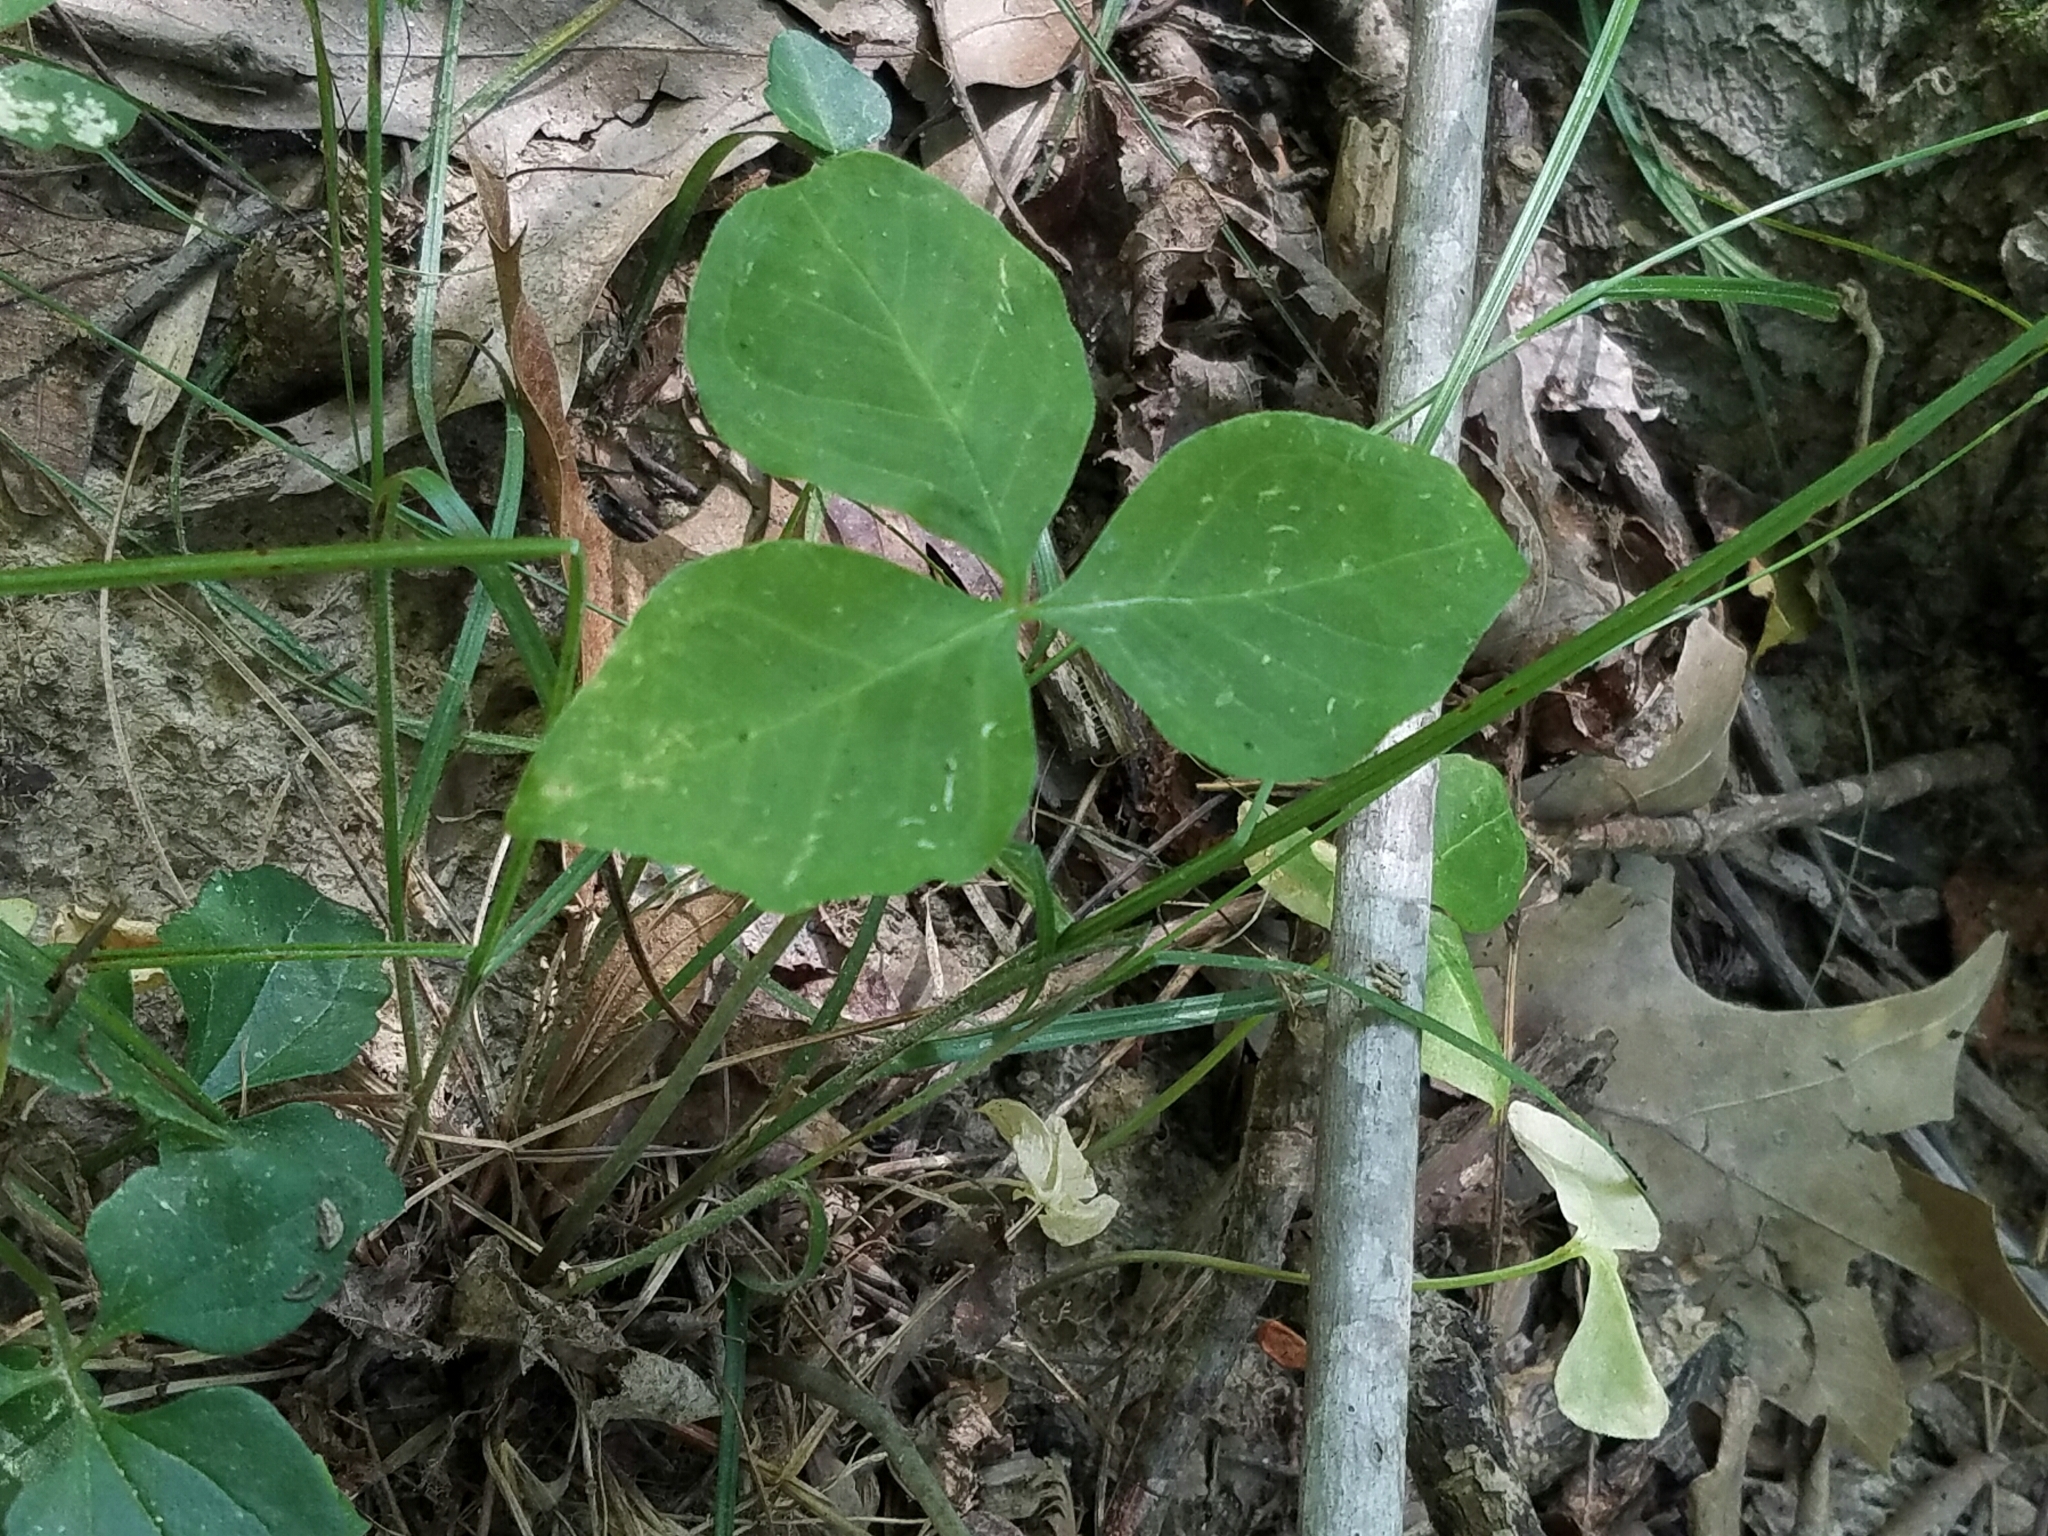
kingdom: Plantae
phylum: Tracheophyta
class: Liliopsida
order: Alismatales
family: Araceae
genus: Arisaema
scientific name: Arisaema triphyllum
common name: Jack-in-the-pulpit
